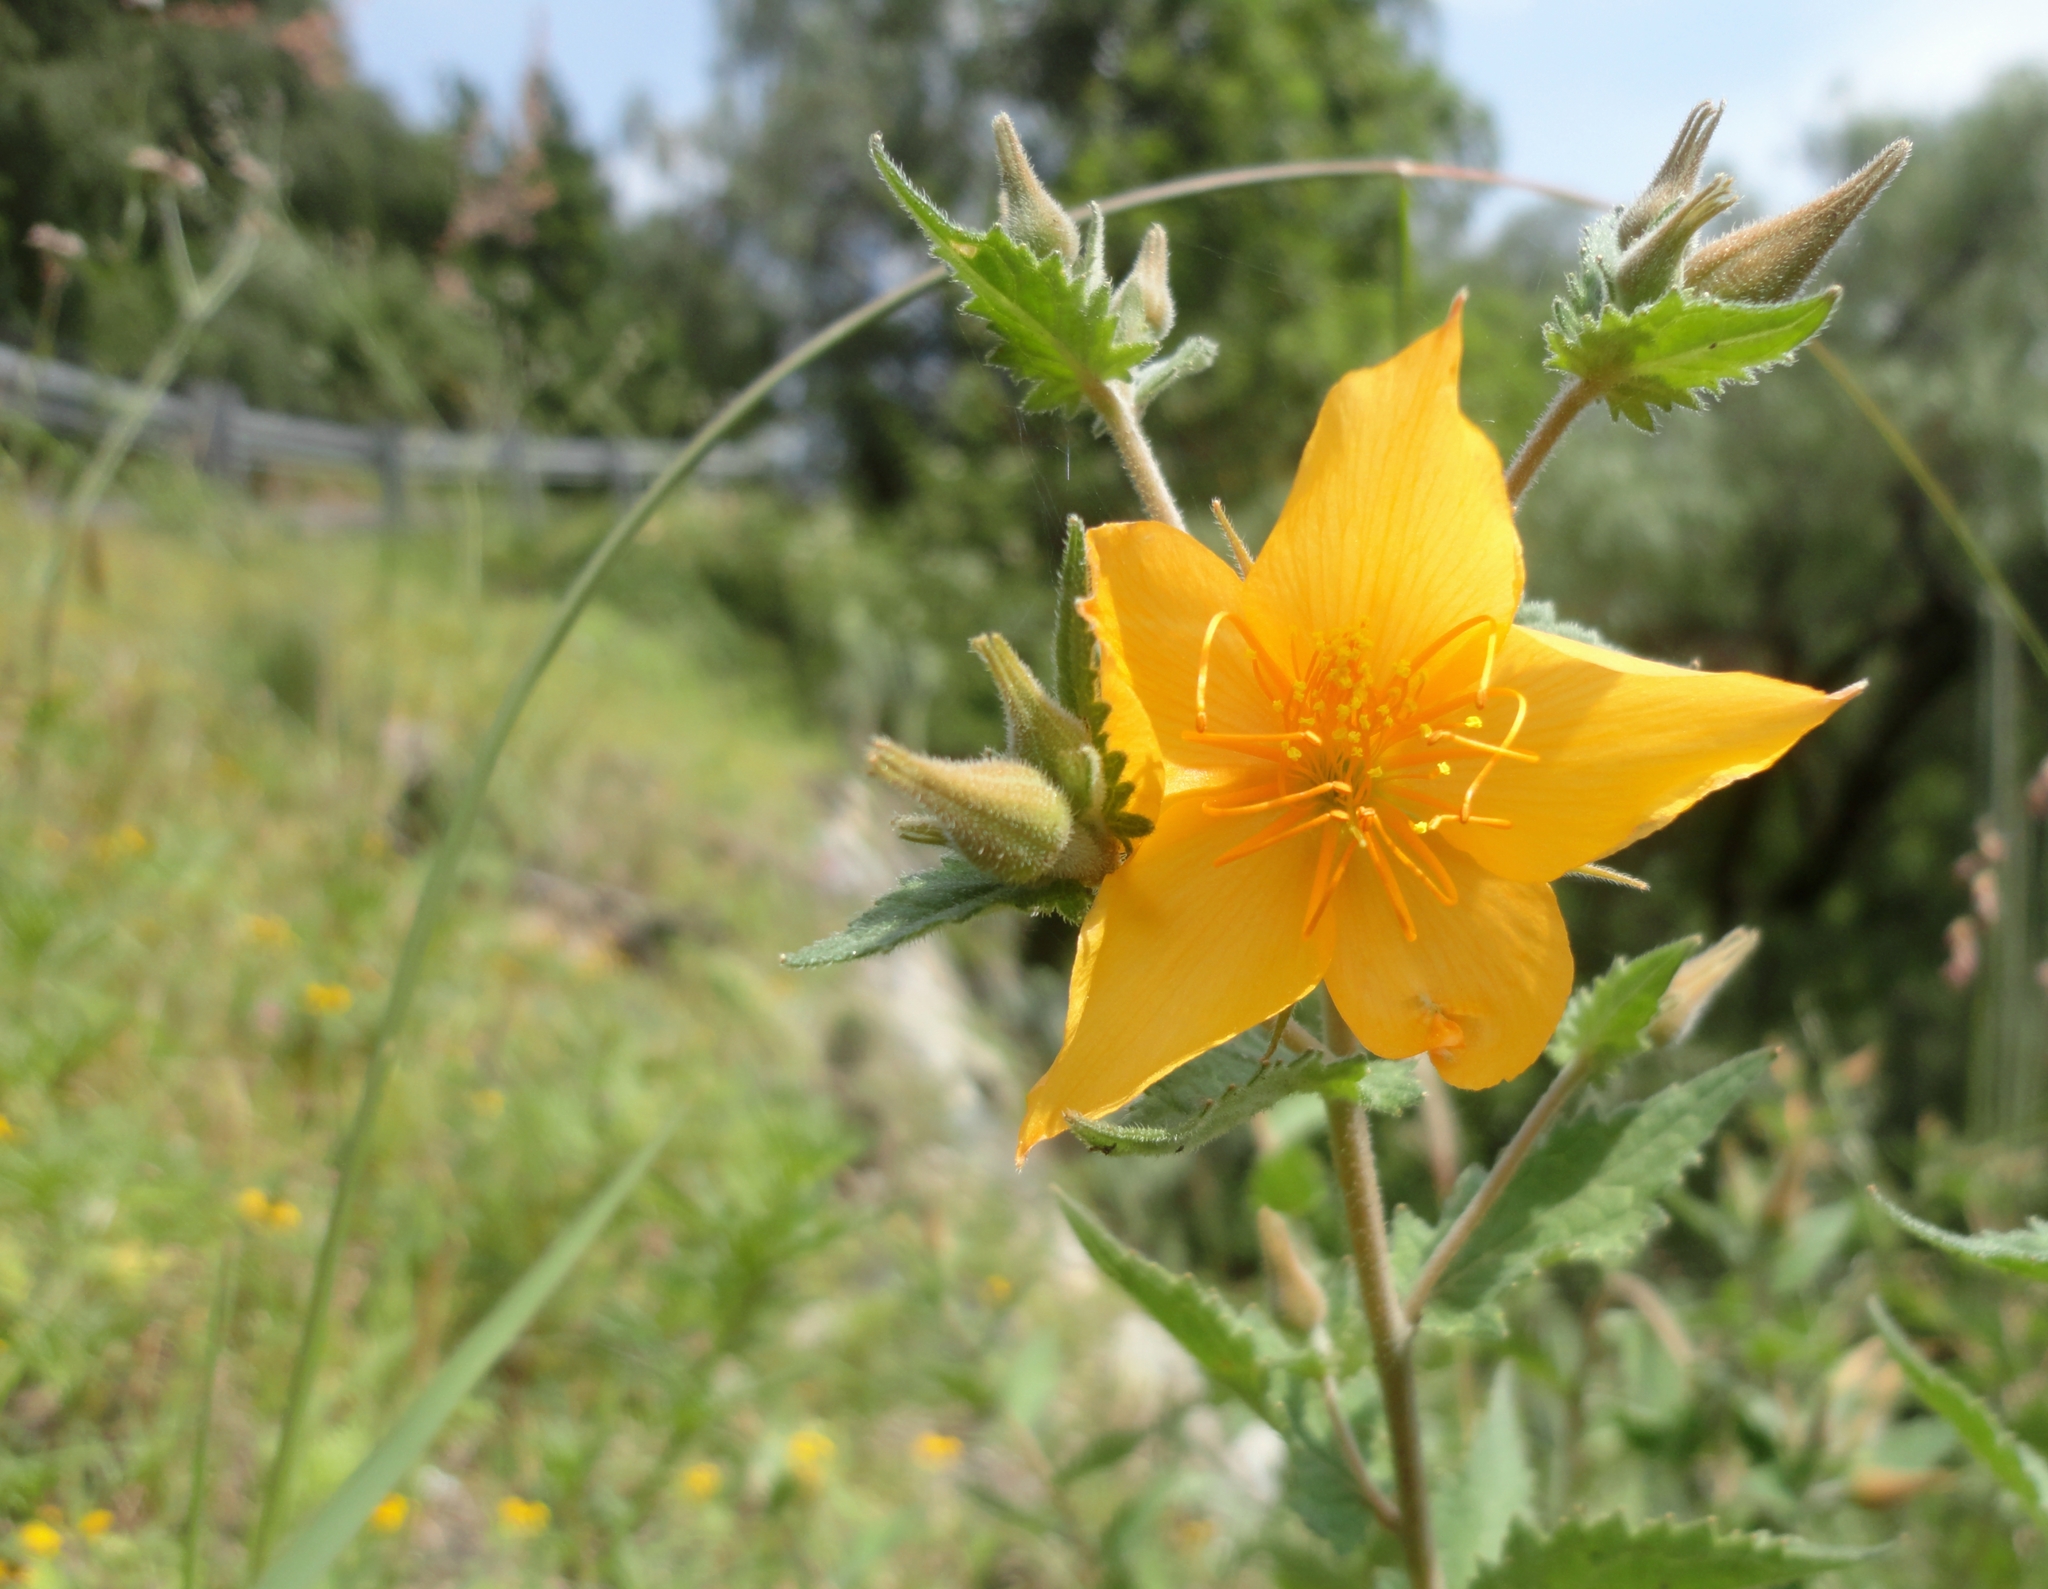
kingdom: Plantae
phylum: Tracheophyta
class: Magnoliopsida
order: Cornales
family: Loasaceae
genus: Mentzelia
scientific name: Mentzelia hispida
